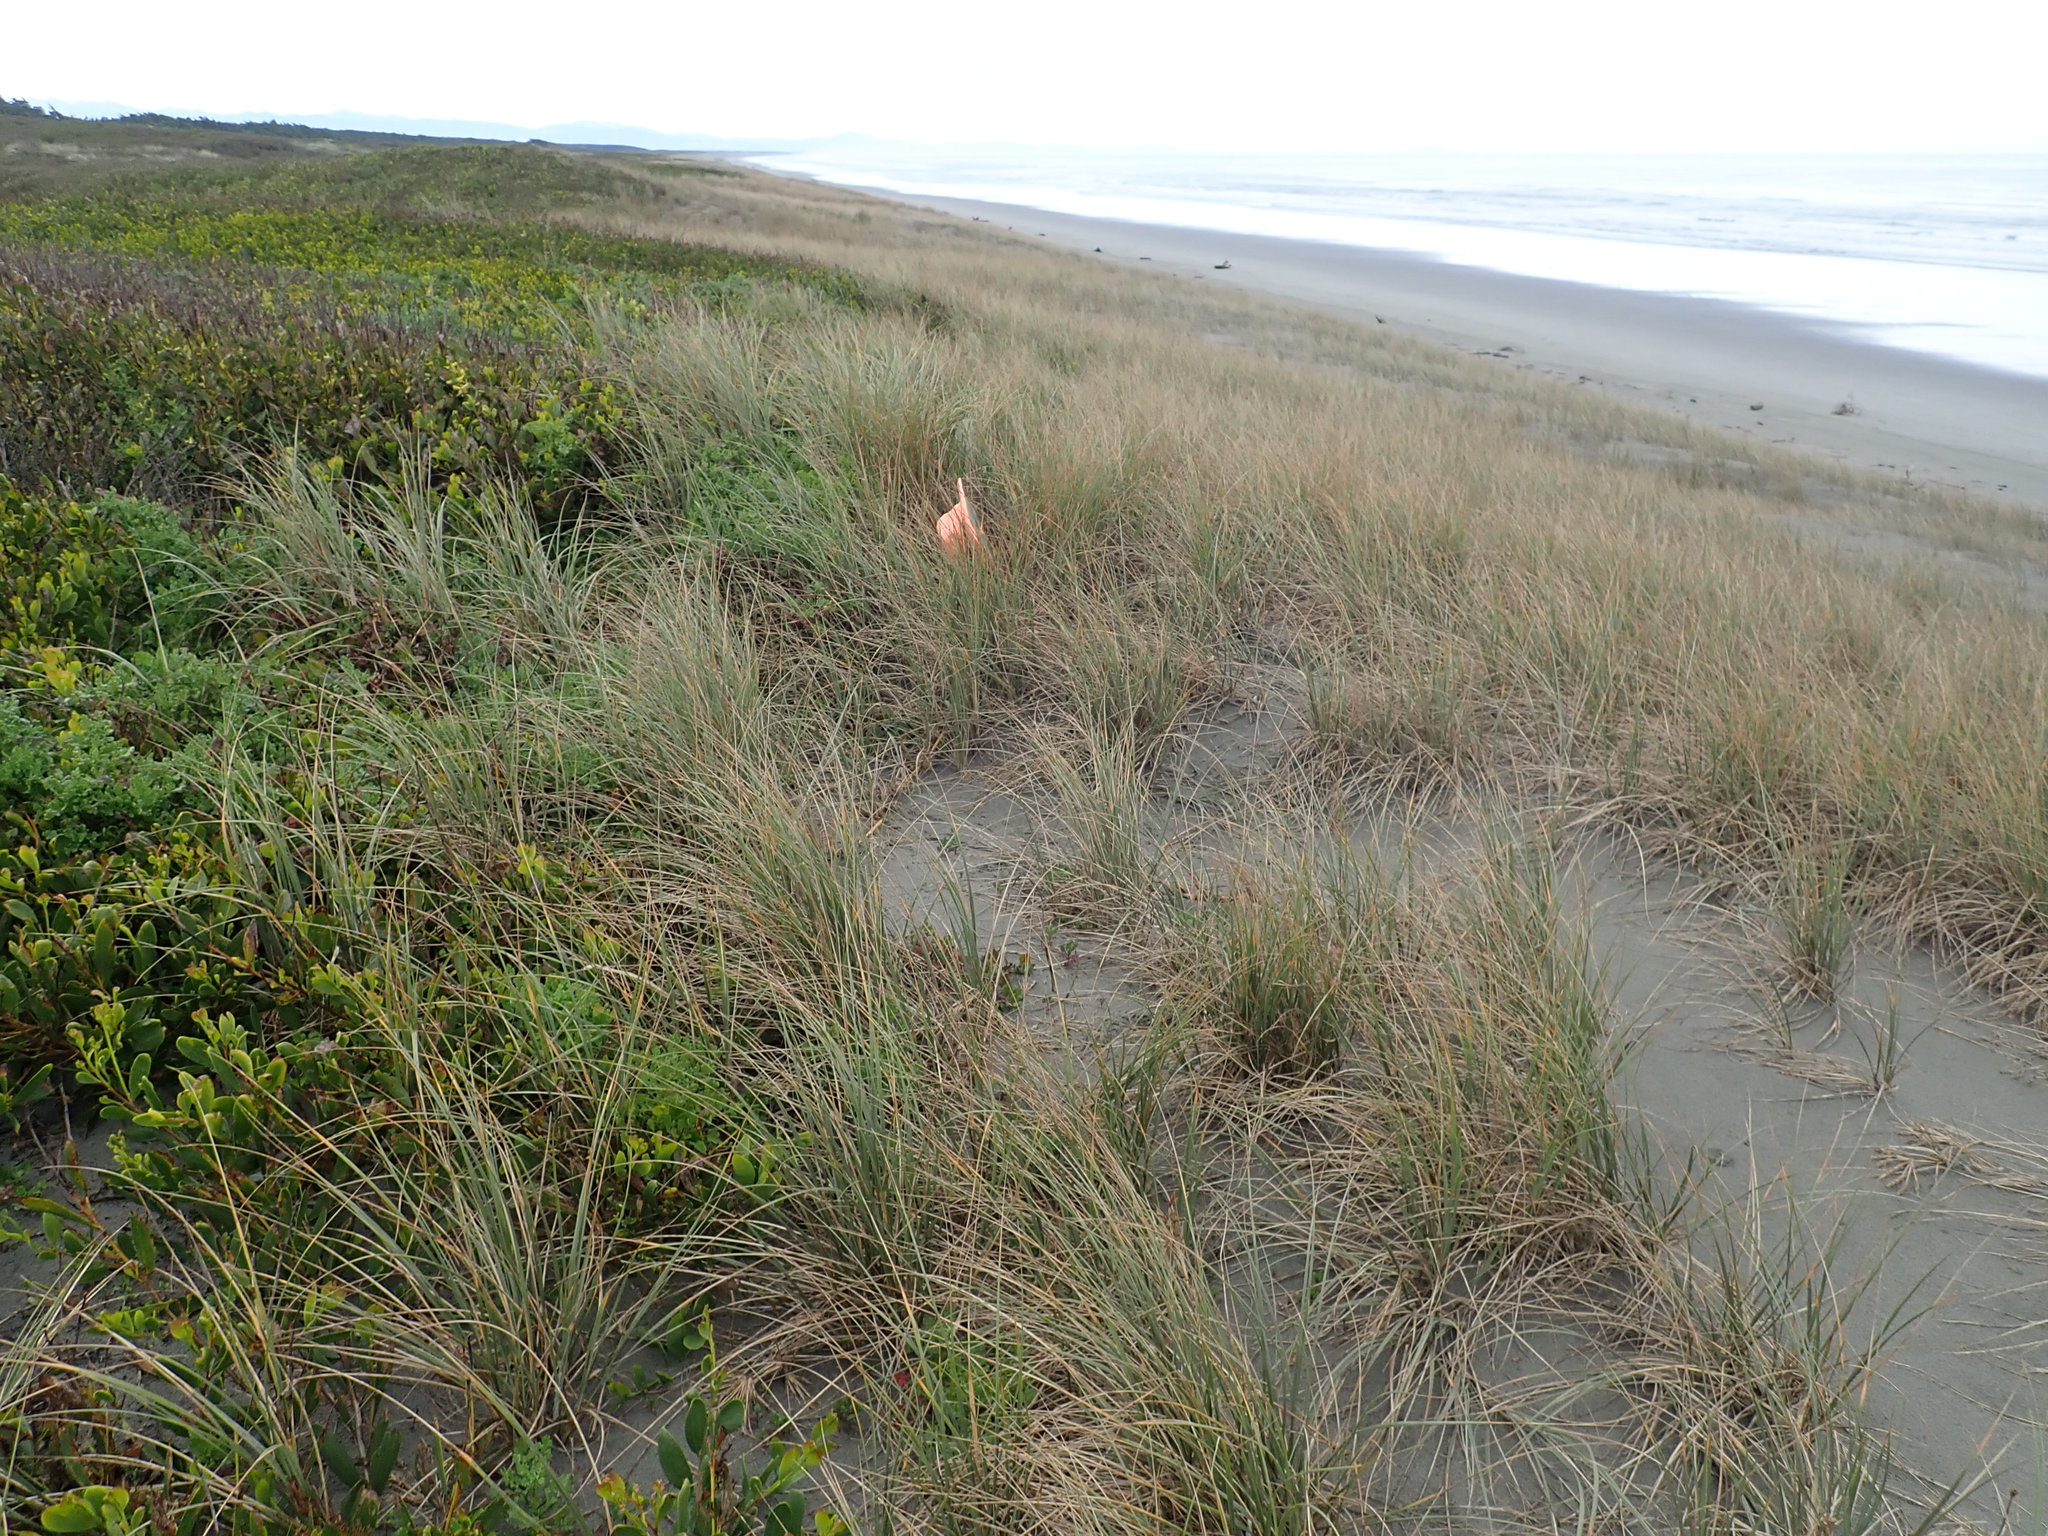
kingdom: Plantae
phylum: Tracheophyta
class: Magnoliopsida
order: Caryophyllales
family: Aizoaceae
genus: Tetragonia
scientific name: Tetragonia implexicoma
